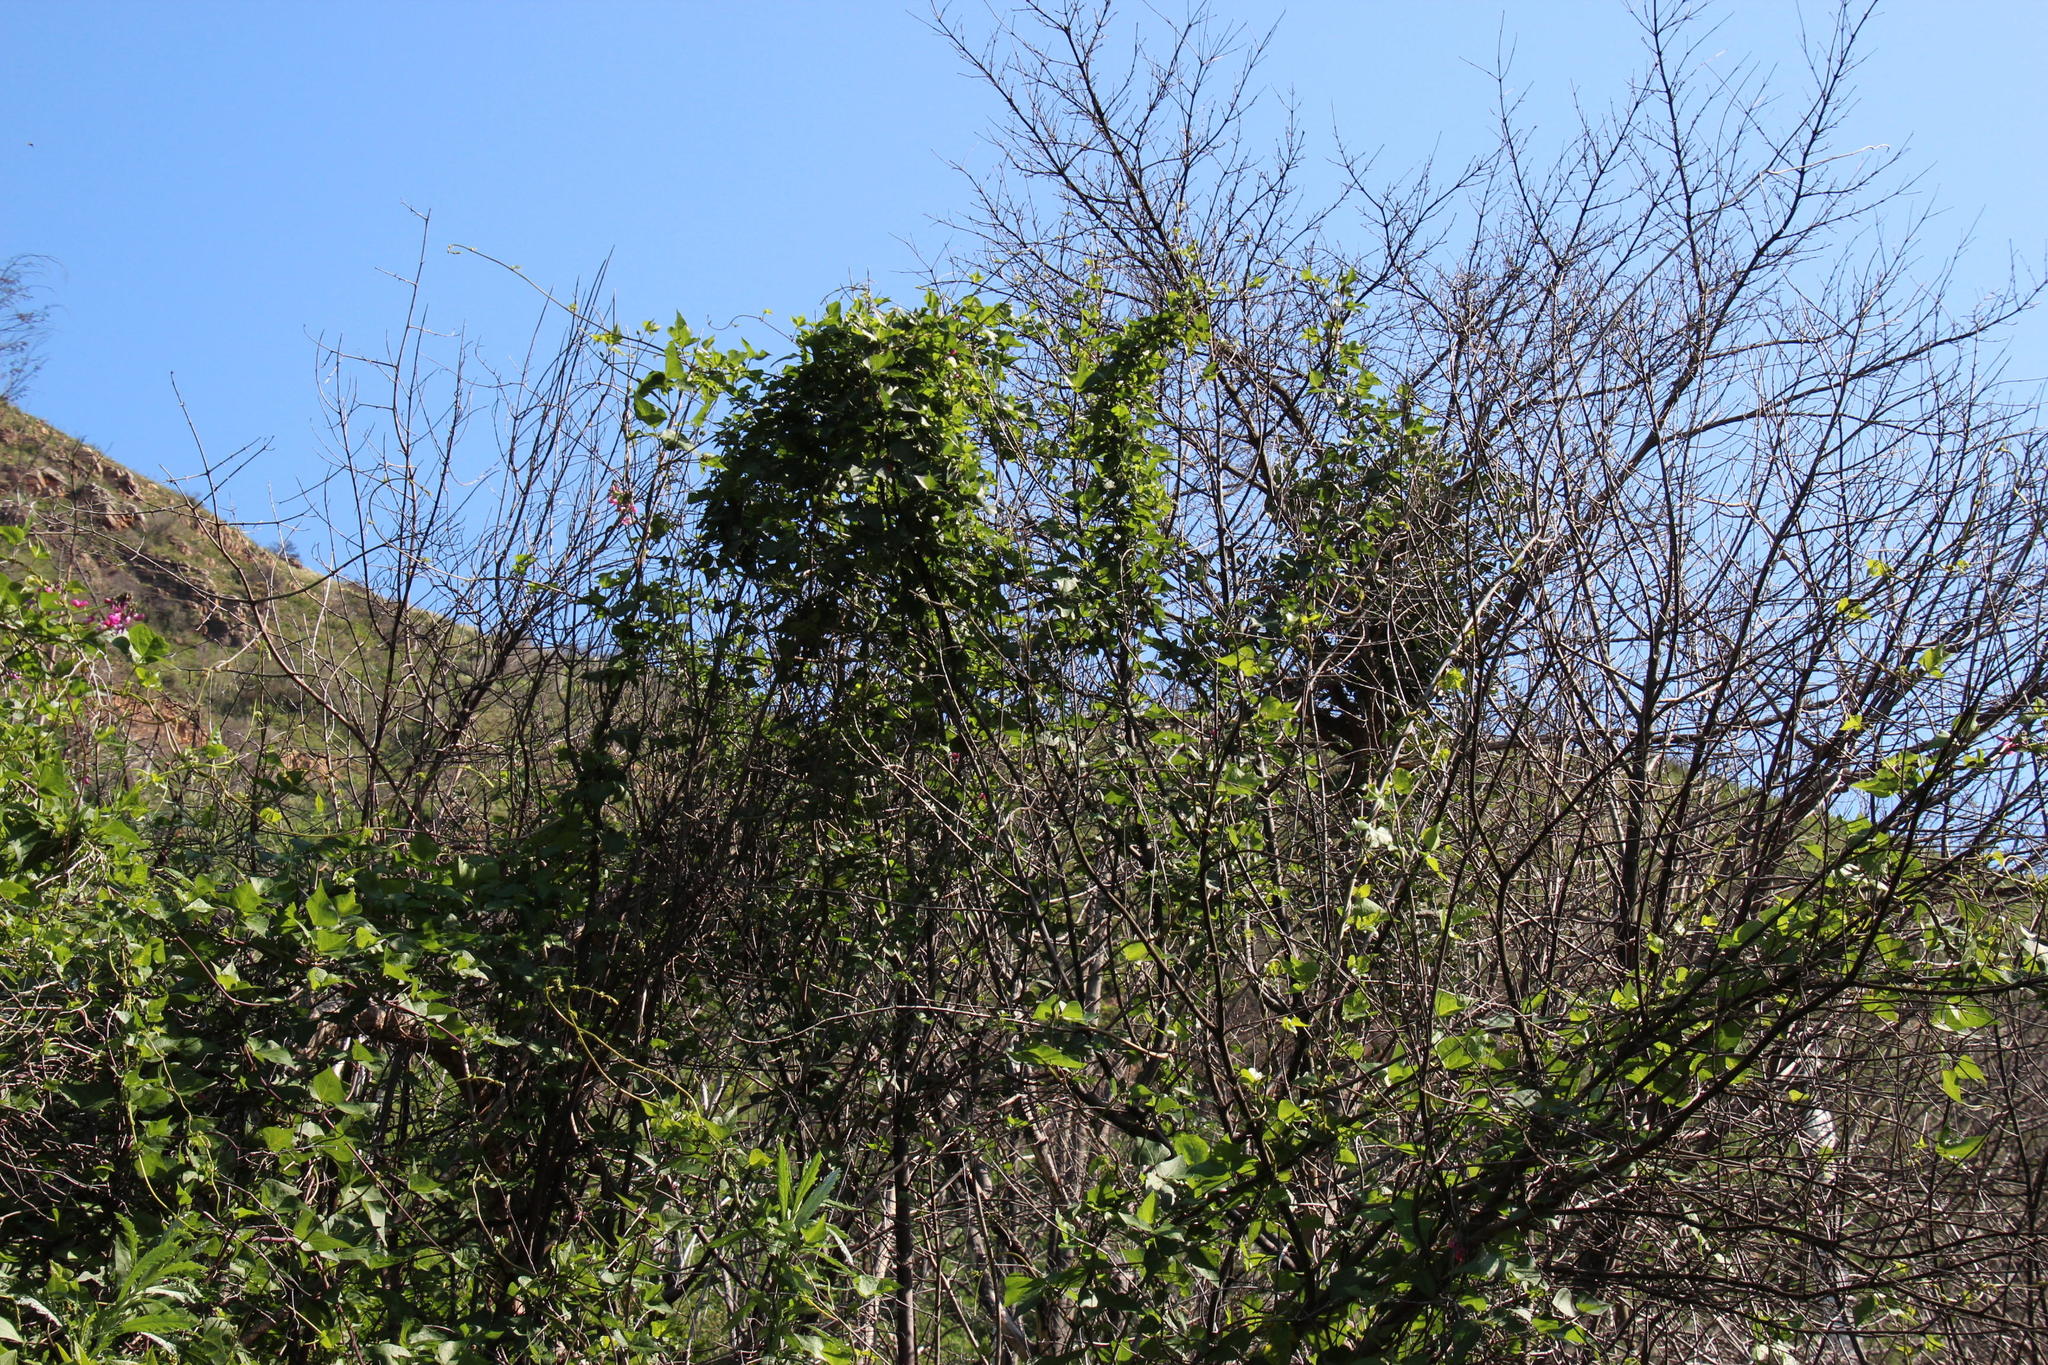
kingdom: Plantae
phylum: Tracheophyta
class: Magnoliopsida
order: Fabales
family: Fabaceae
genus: Dipogon
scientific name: Dipogon lignosus
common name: Okie bean
